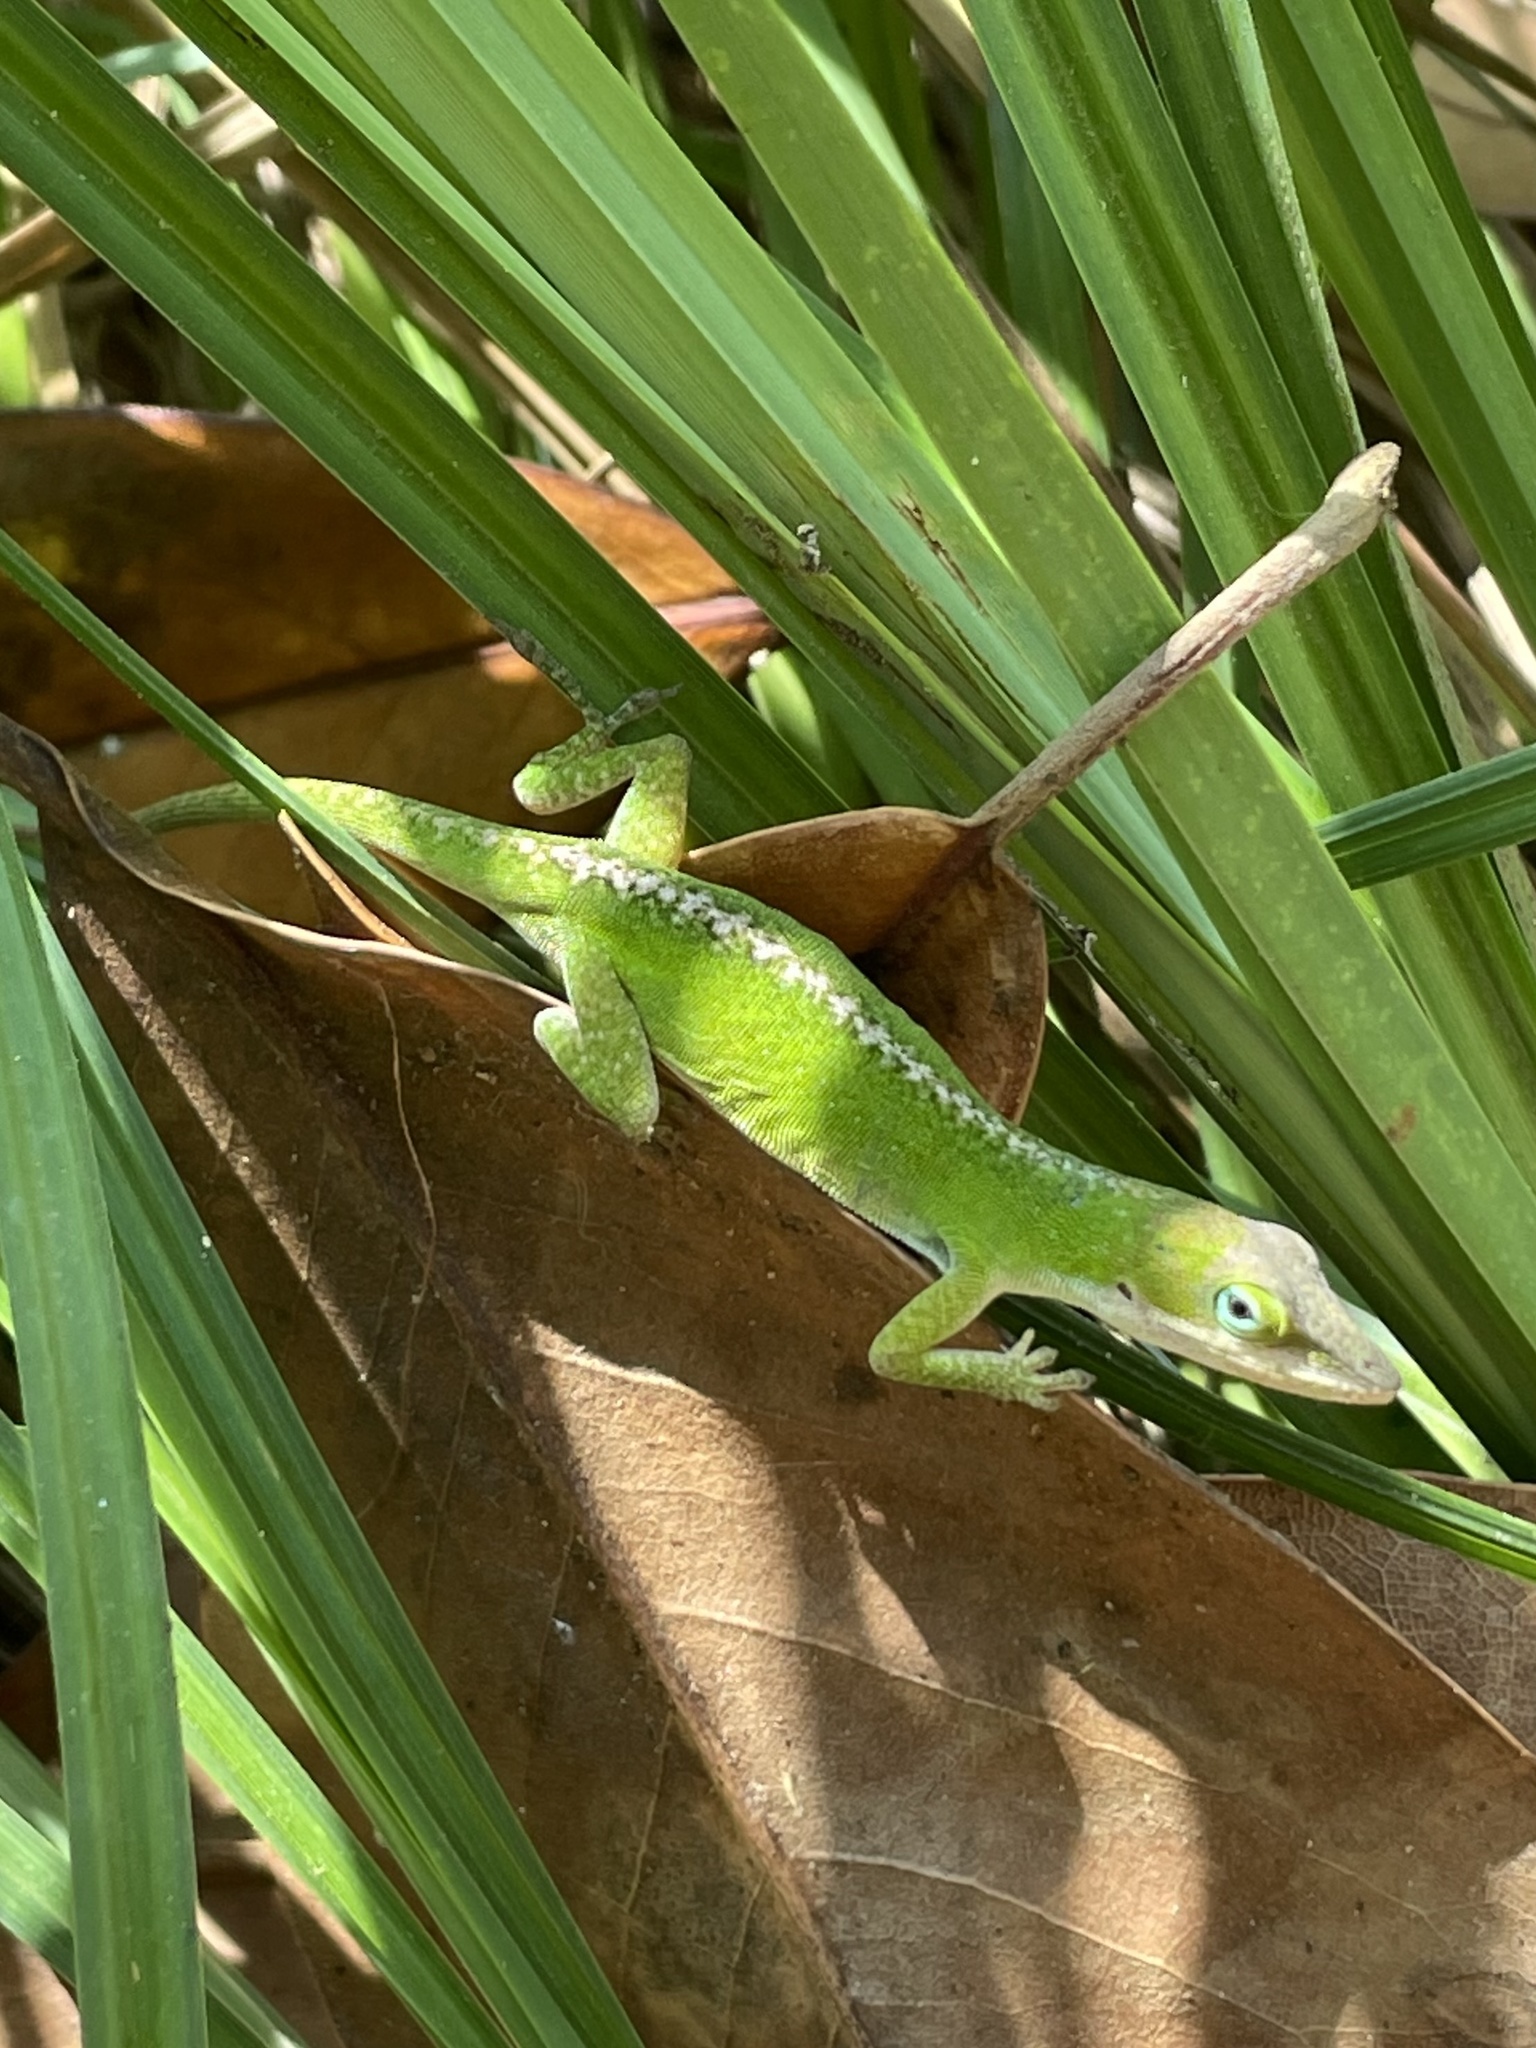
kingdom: Animalia
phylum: Chordata
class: Squamata
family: Dactyloidae
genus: Anolis
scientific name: Anolis carolinensis
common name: Green anole
